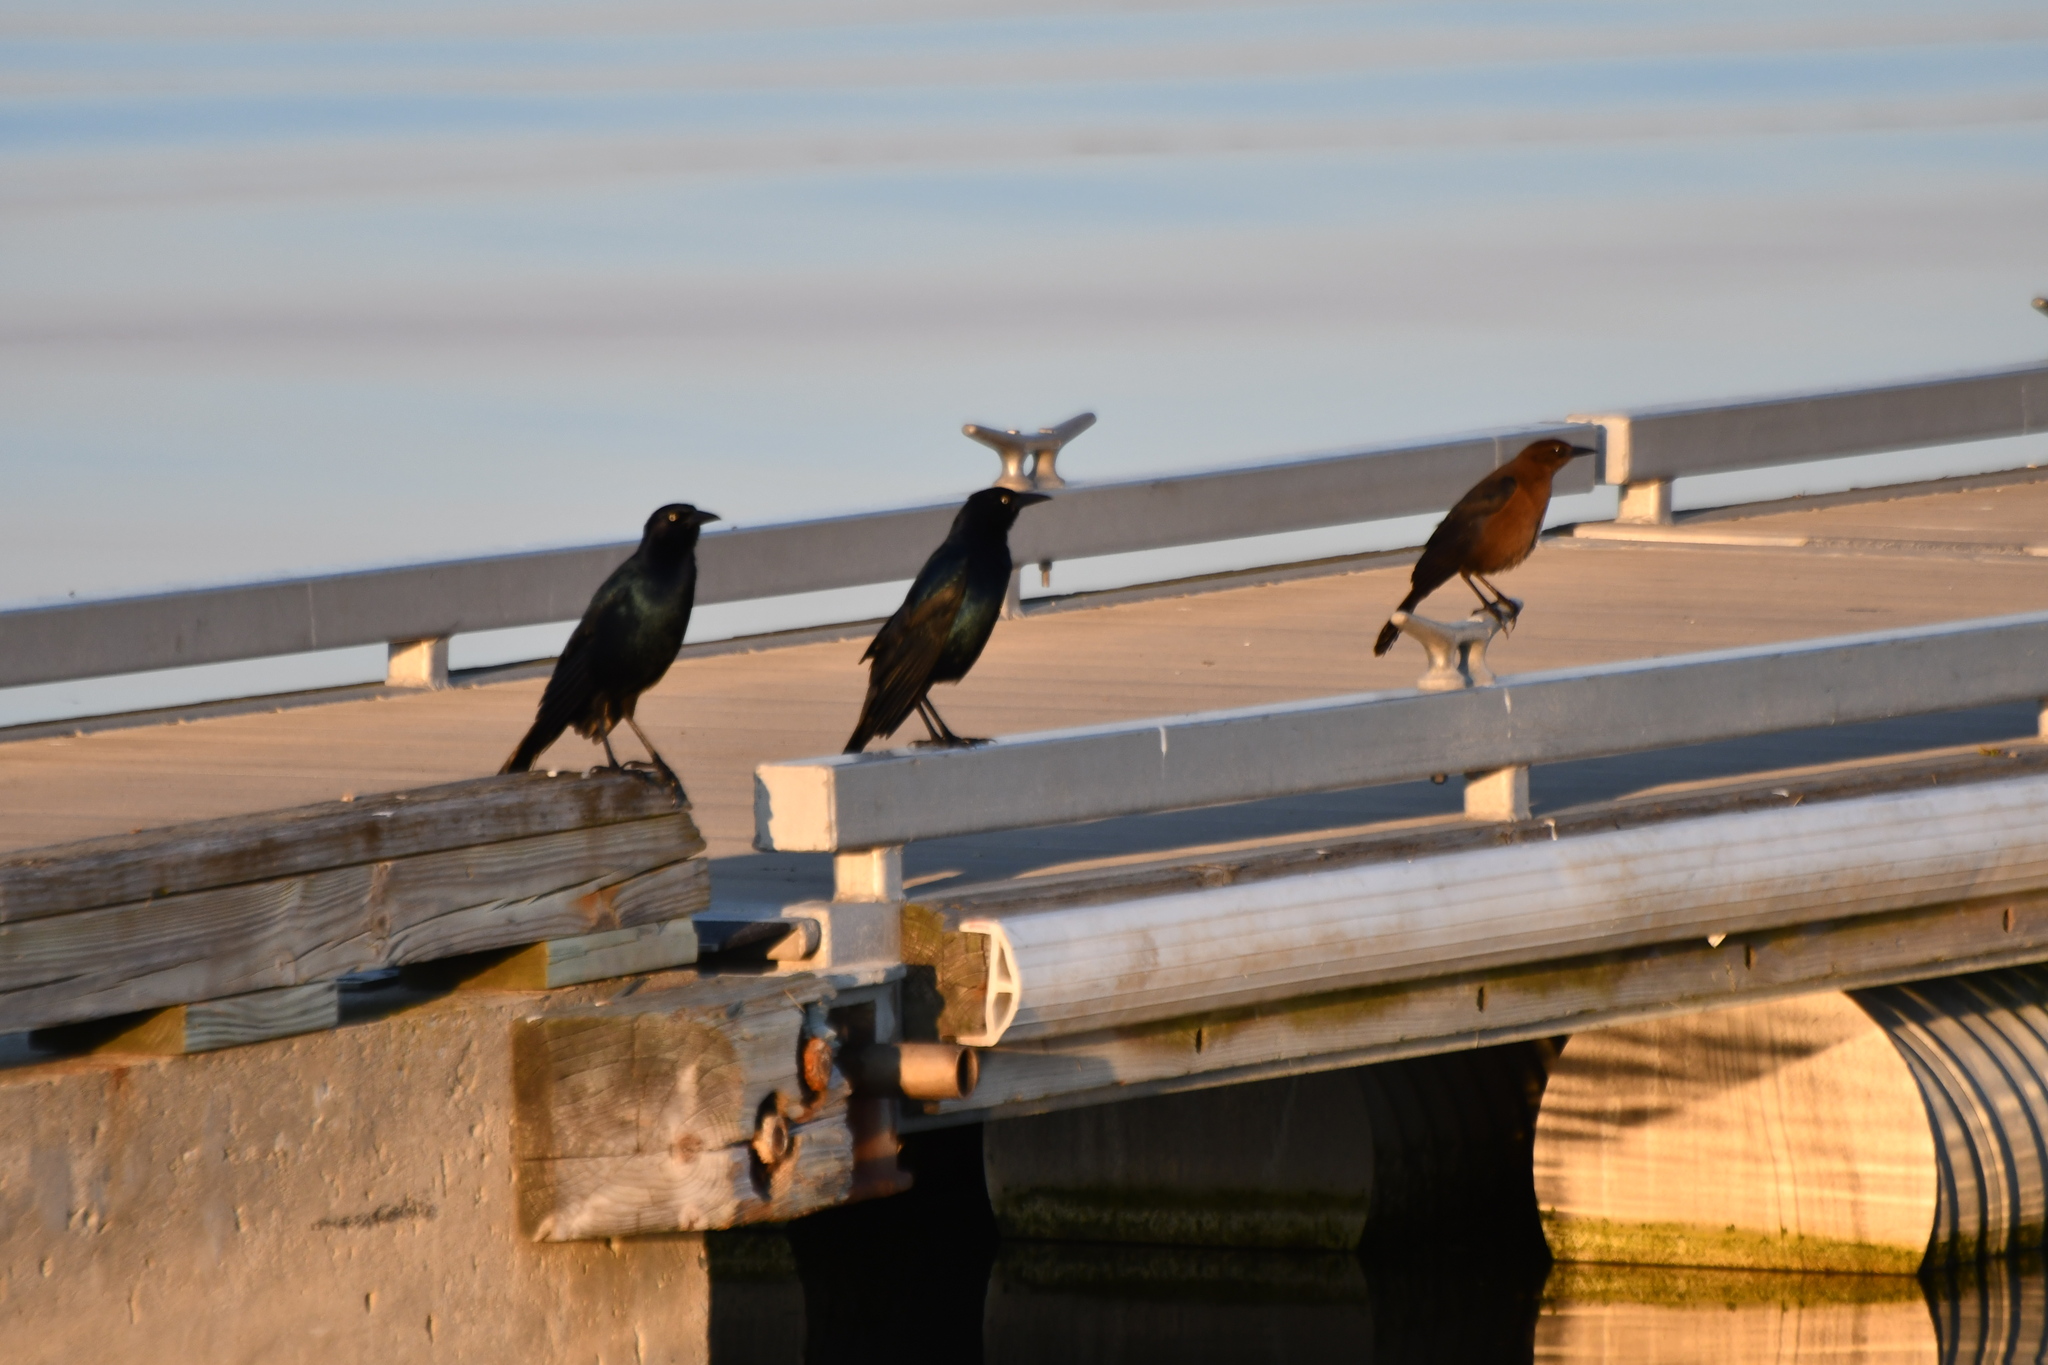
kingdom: Animalia
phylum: Chordata
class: Aves
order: Passeriformes
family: Icteridae
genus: Quiscalus
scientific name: Quiscalus major
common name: Boat-tailed grackle
